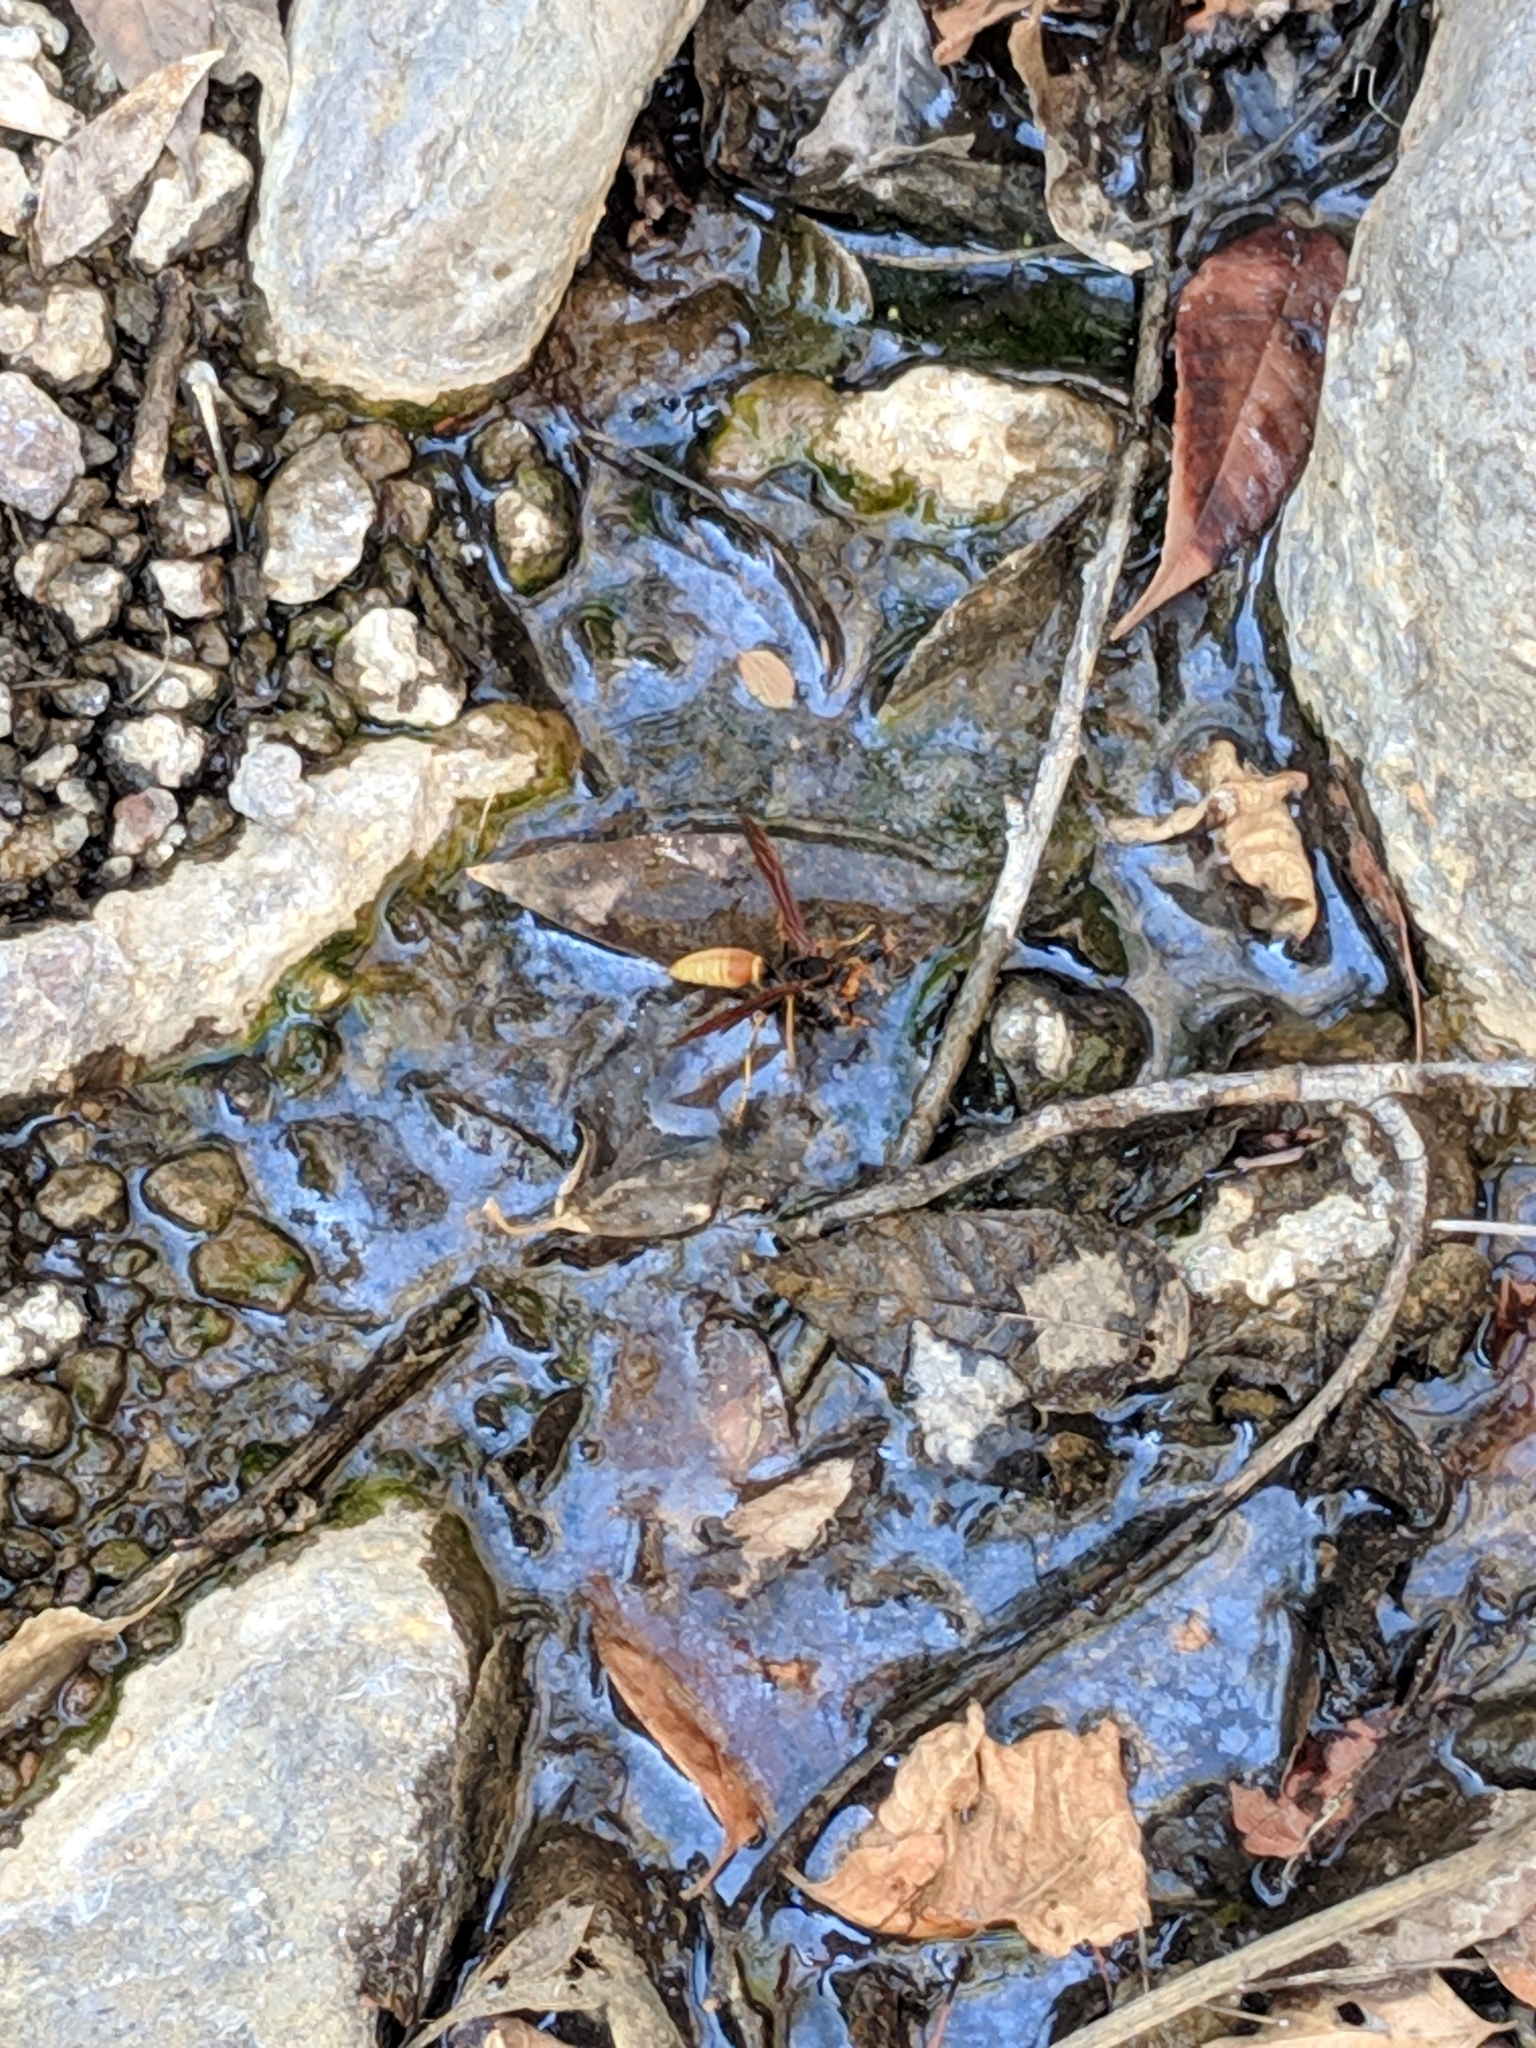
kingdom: Animalia
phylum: Arthropoda
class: Insecta
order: Hymenoptera
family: Eumenidae
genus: Polistes
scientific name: Polistes comanchus
